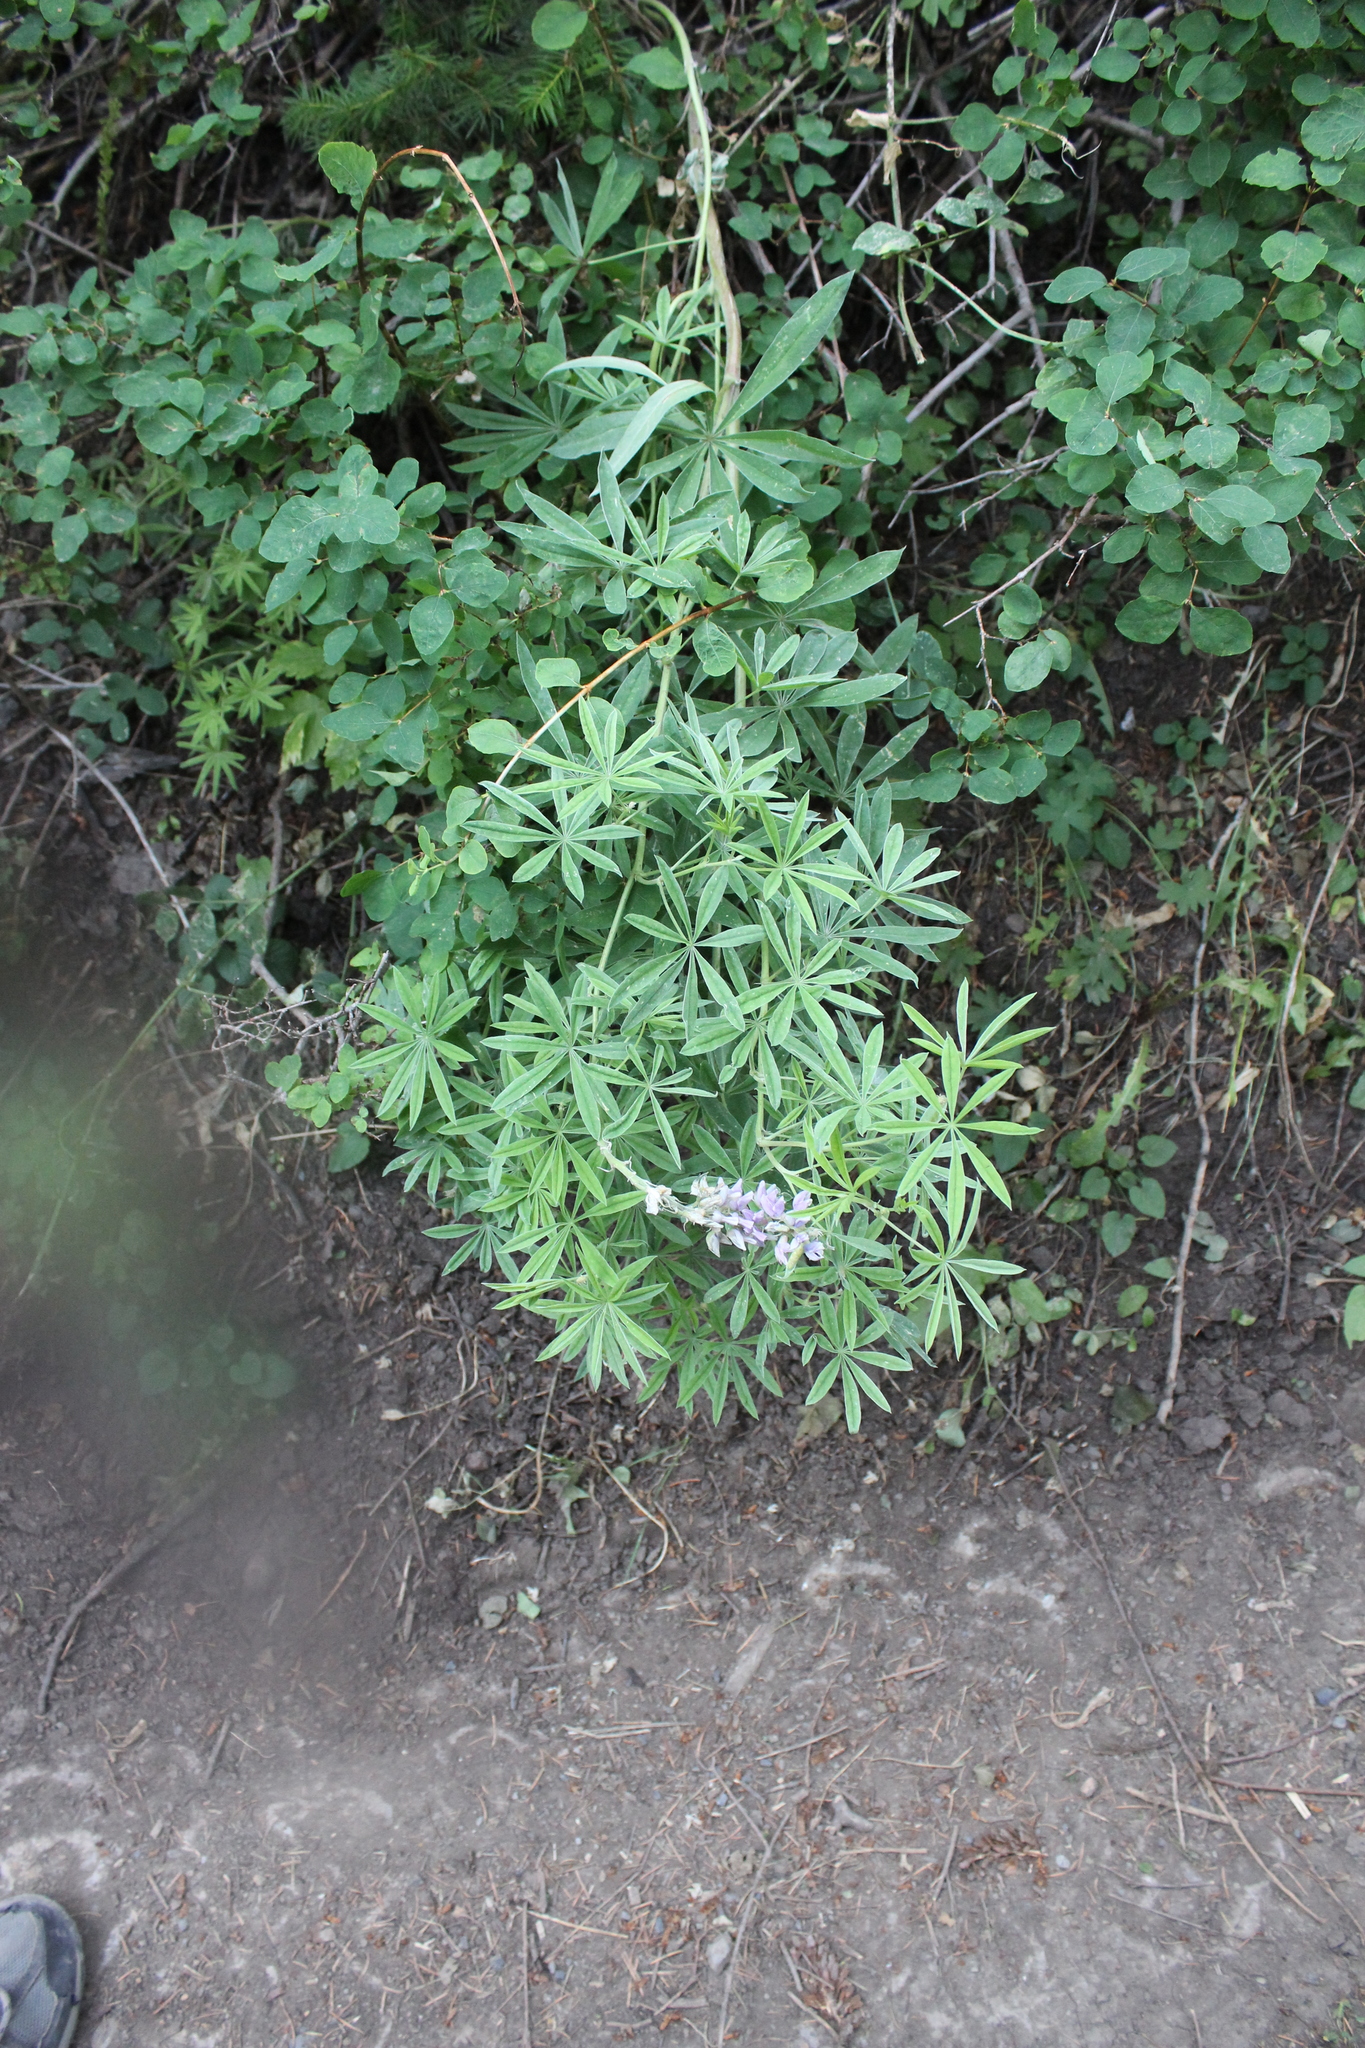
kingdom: Plantae
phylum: Tracheophyta
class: Magnoliopsida
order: Fabales
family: Fabaceae
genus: Lupinus
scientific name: Lupinus argenteus
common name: Silvery lupine
